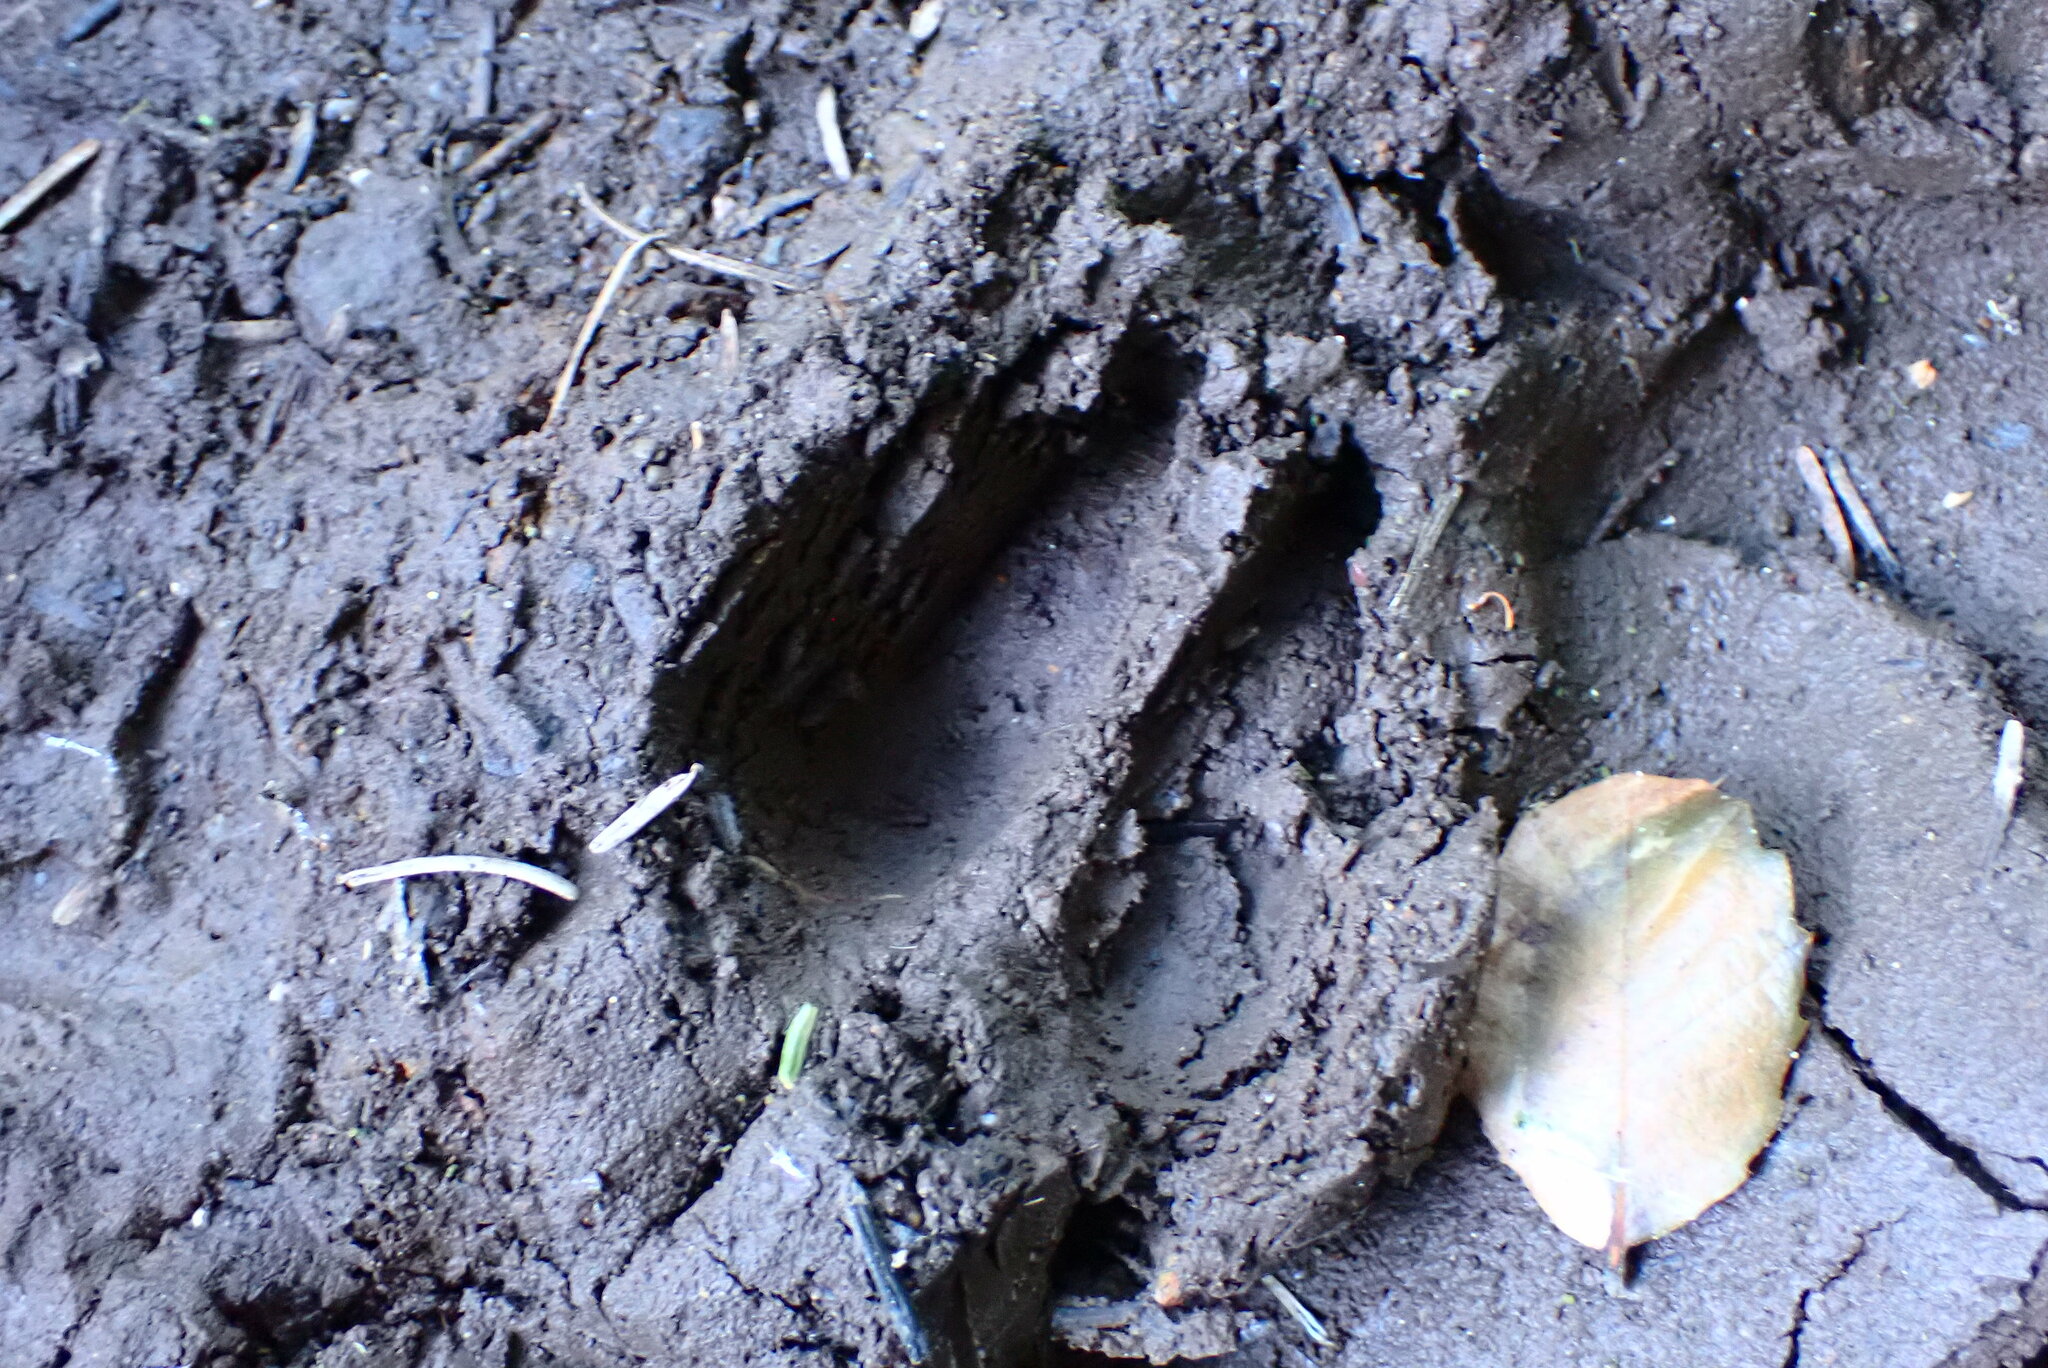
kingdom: Animalia
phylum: Chordata
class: Mammalia
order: Artiodactyla
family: Cervidae
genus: Odocoileus
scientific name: Odocoileus hemionus
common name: Mule deer
